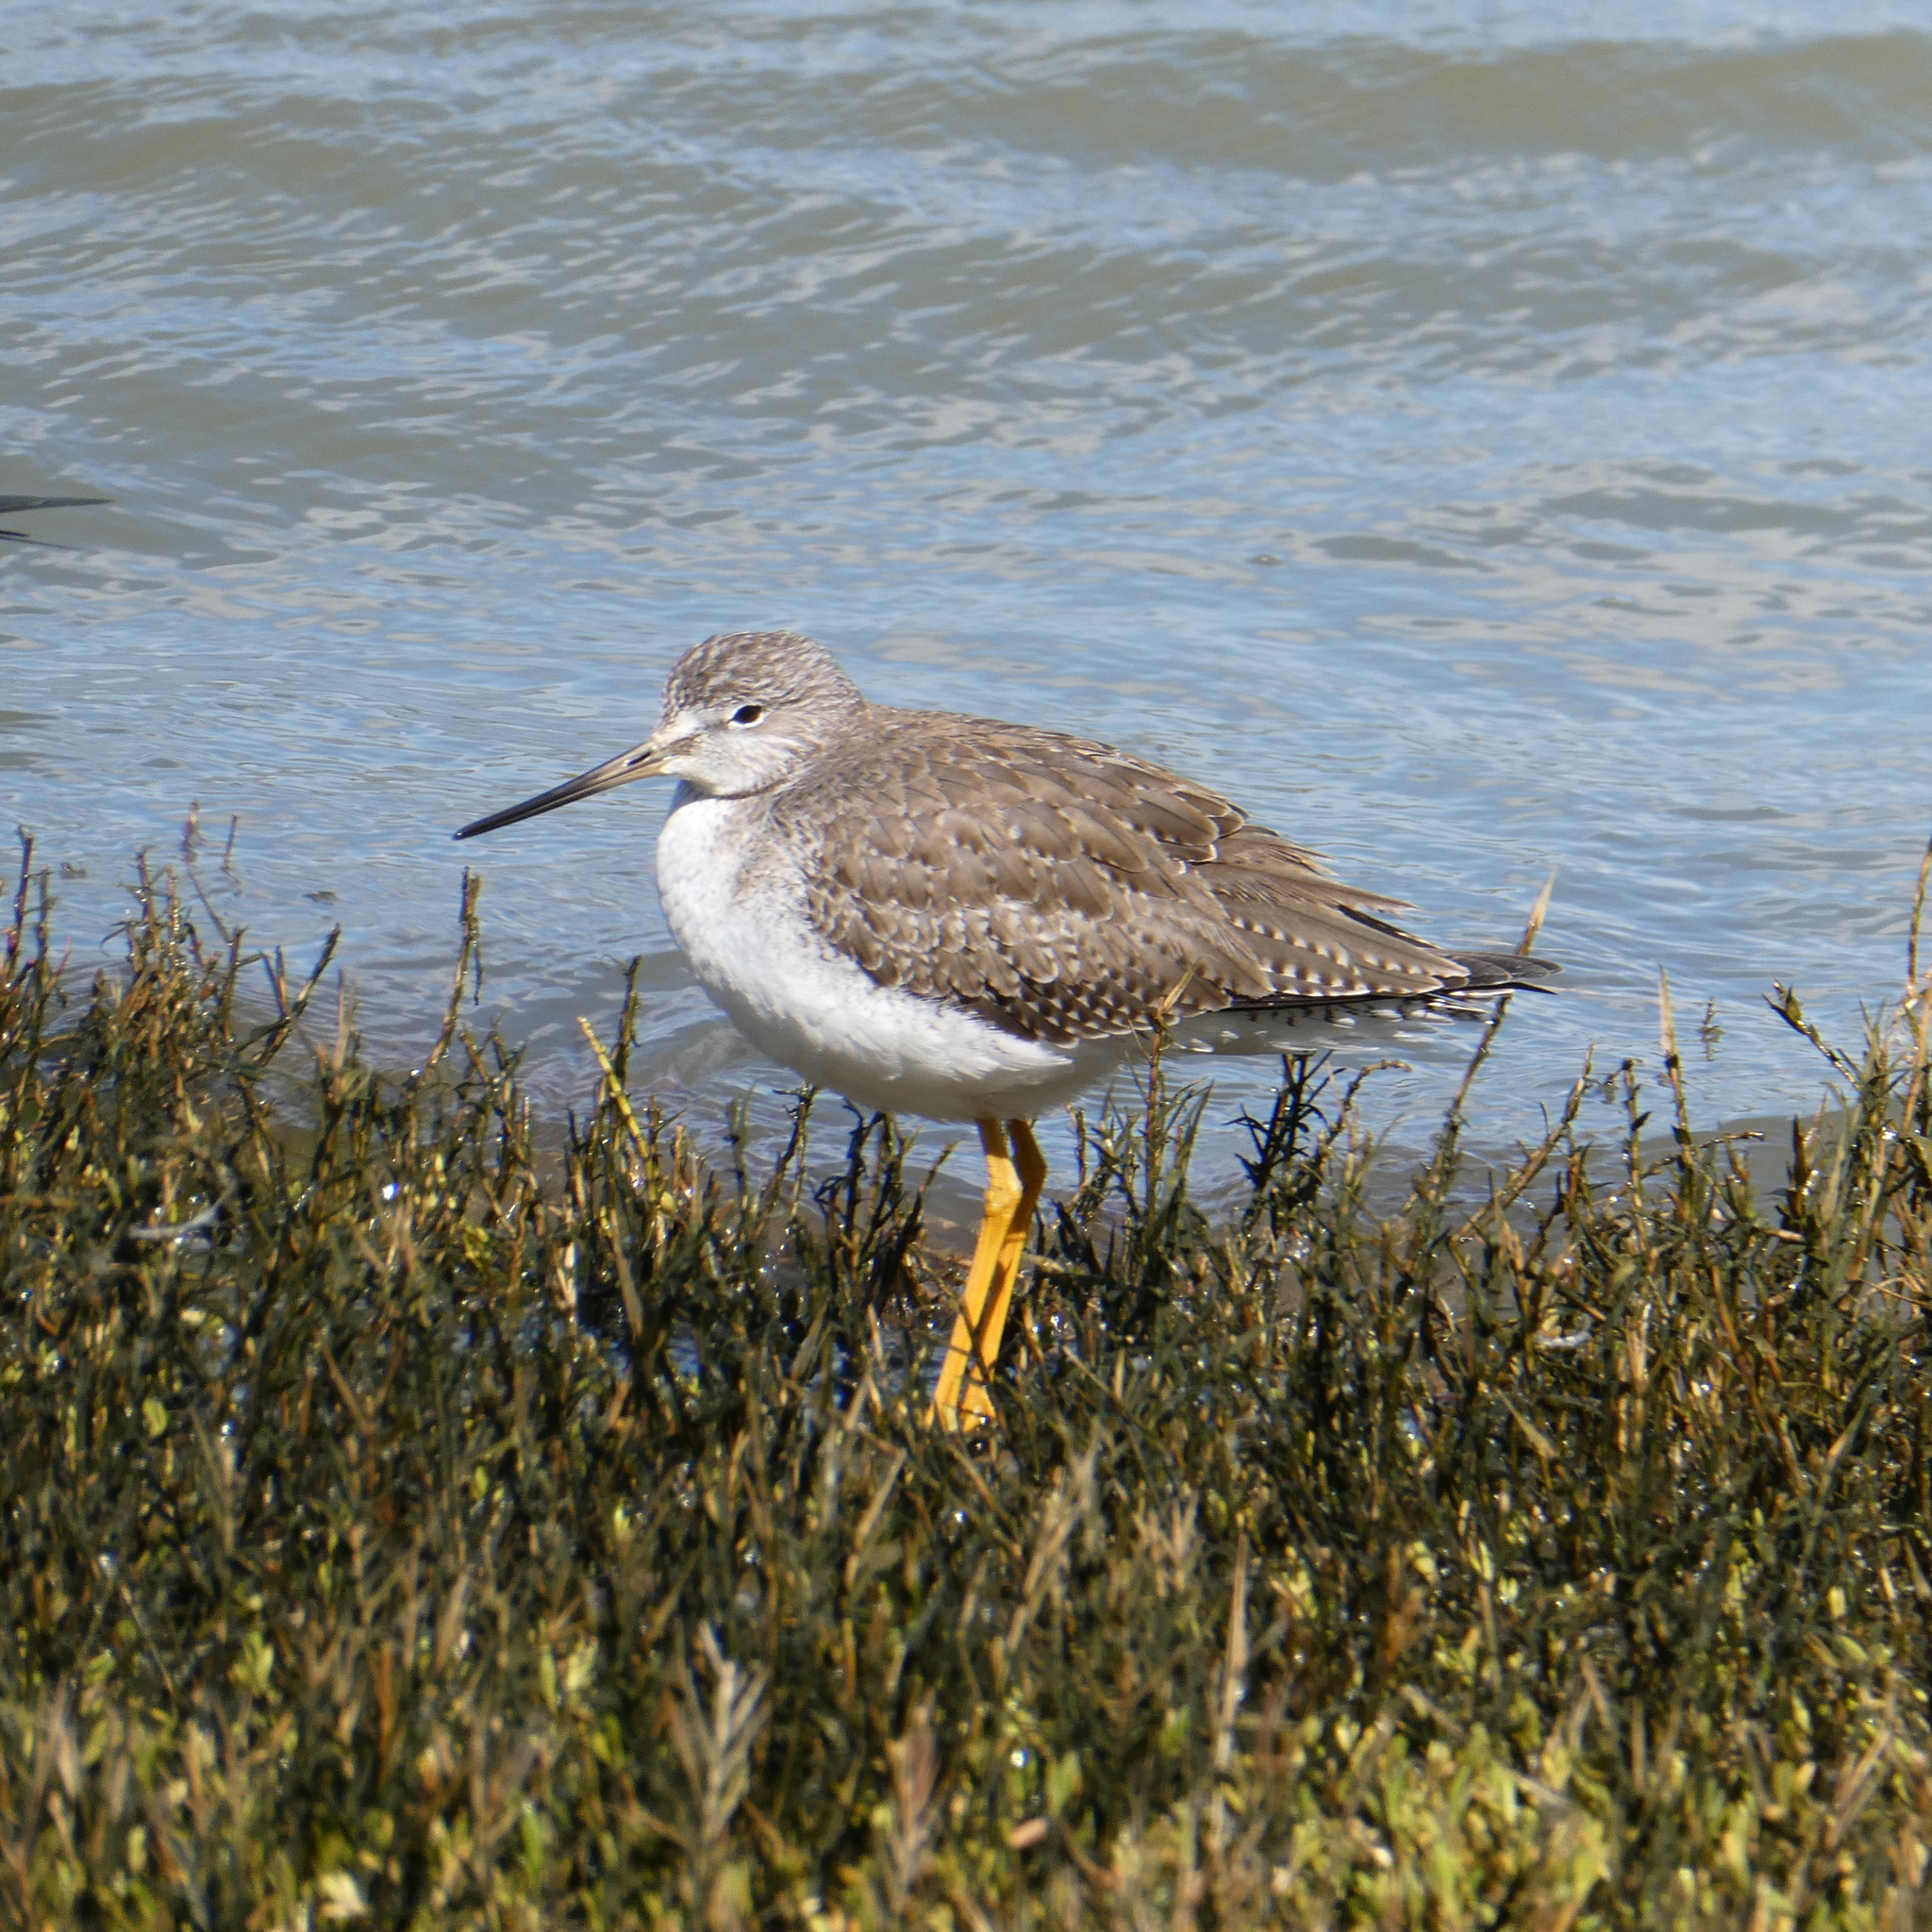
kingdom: Animalia
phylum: Chordata
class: Aves
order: Charadriiformes
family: Scolopacidae
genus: Tringa
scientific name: Tringa melanoleuca
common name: Greater yellowlegs
